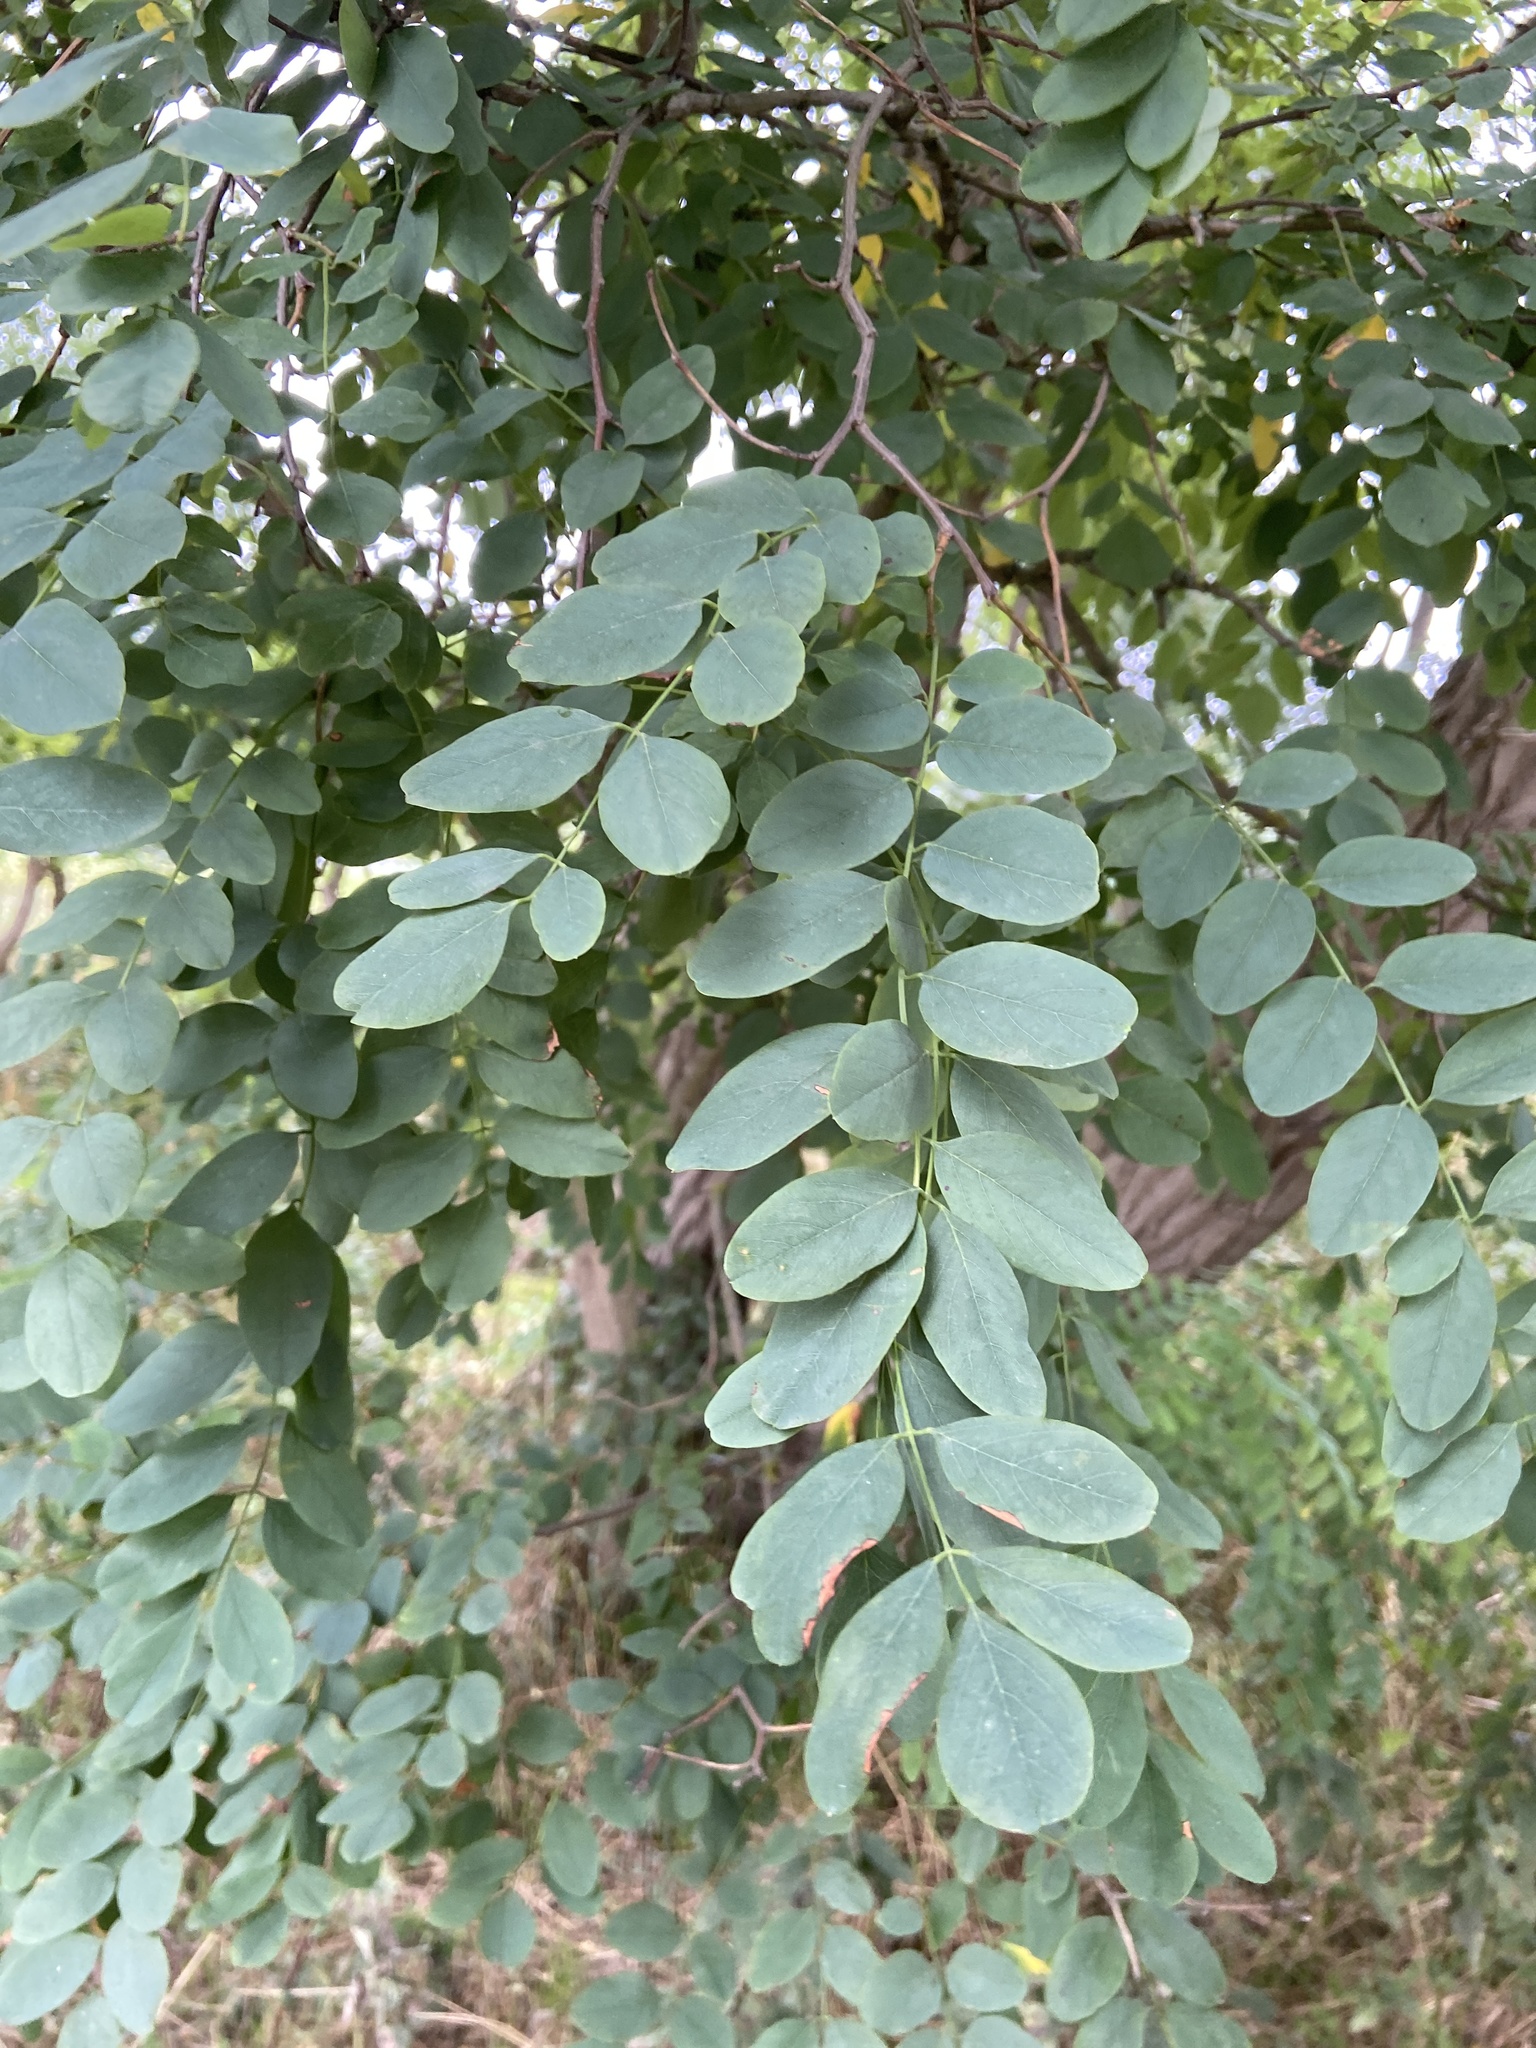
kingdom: Plantae
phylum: Tracheophyta
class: Magnoliopsida
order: Fabales
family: Fabaceae
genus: Robinia
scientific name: Robinia pseudoacacia
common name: Black locust
